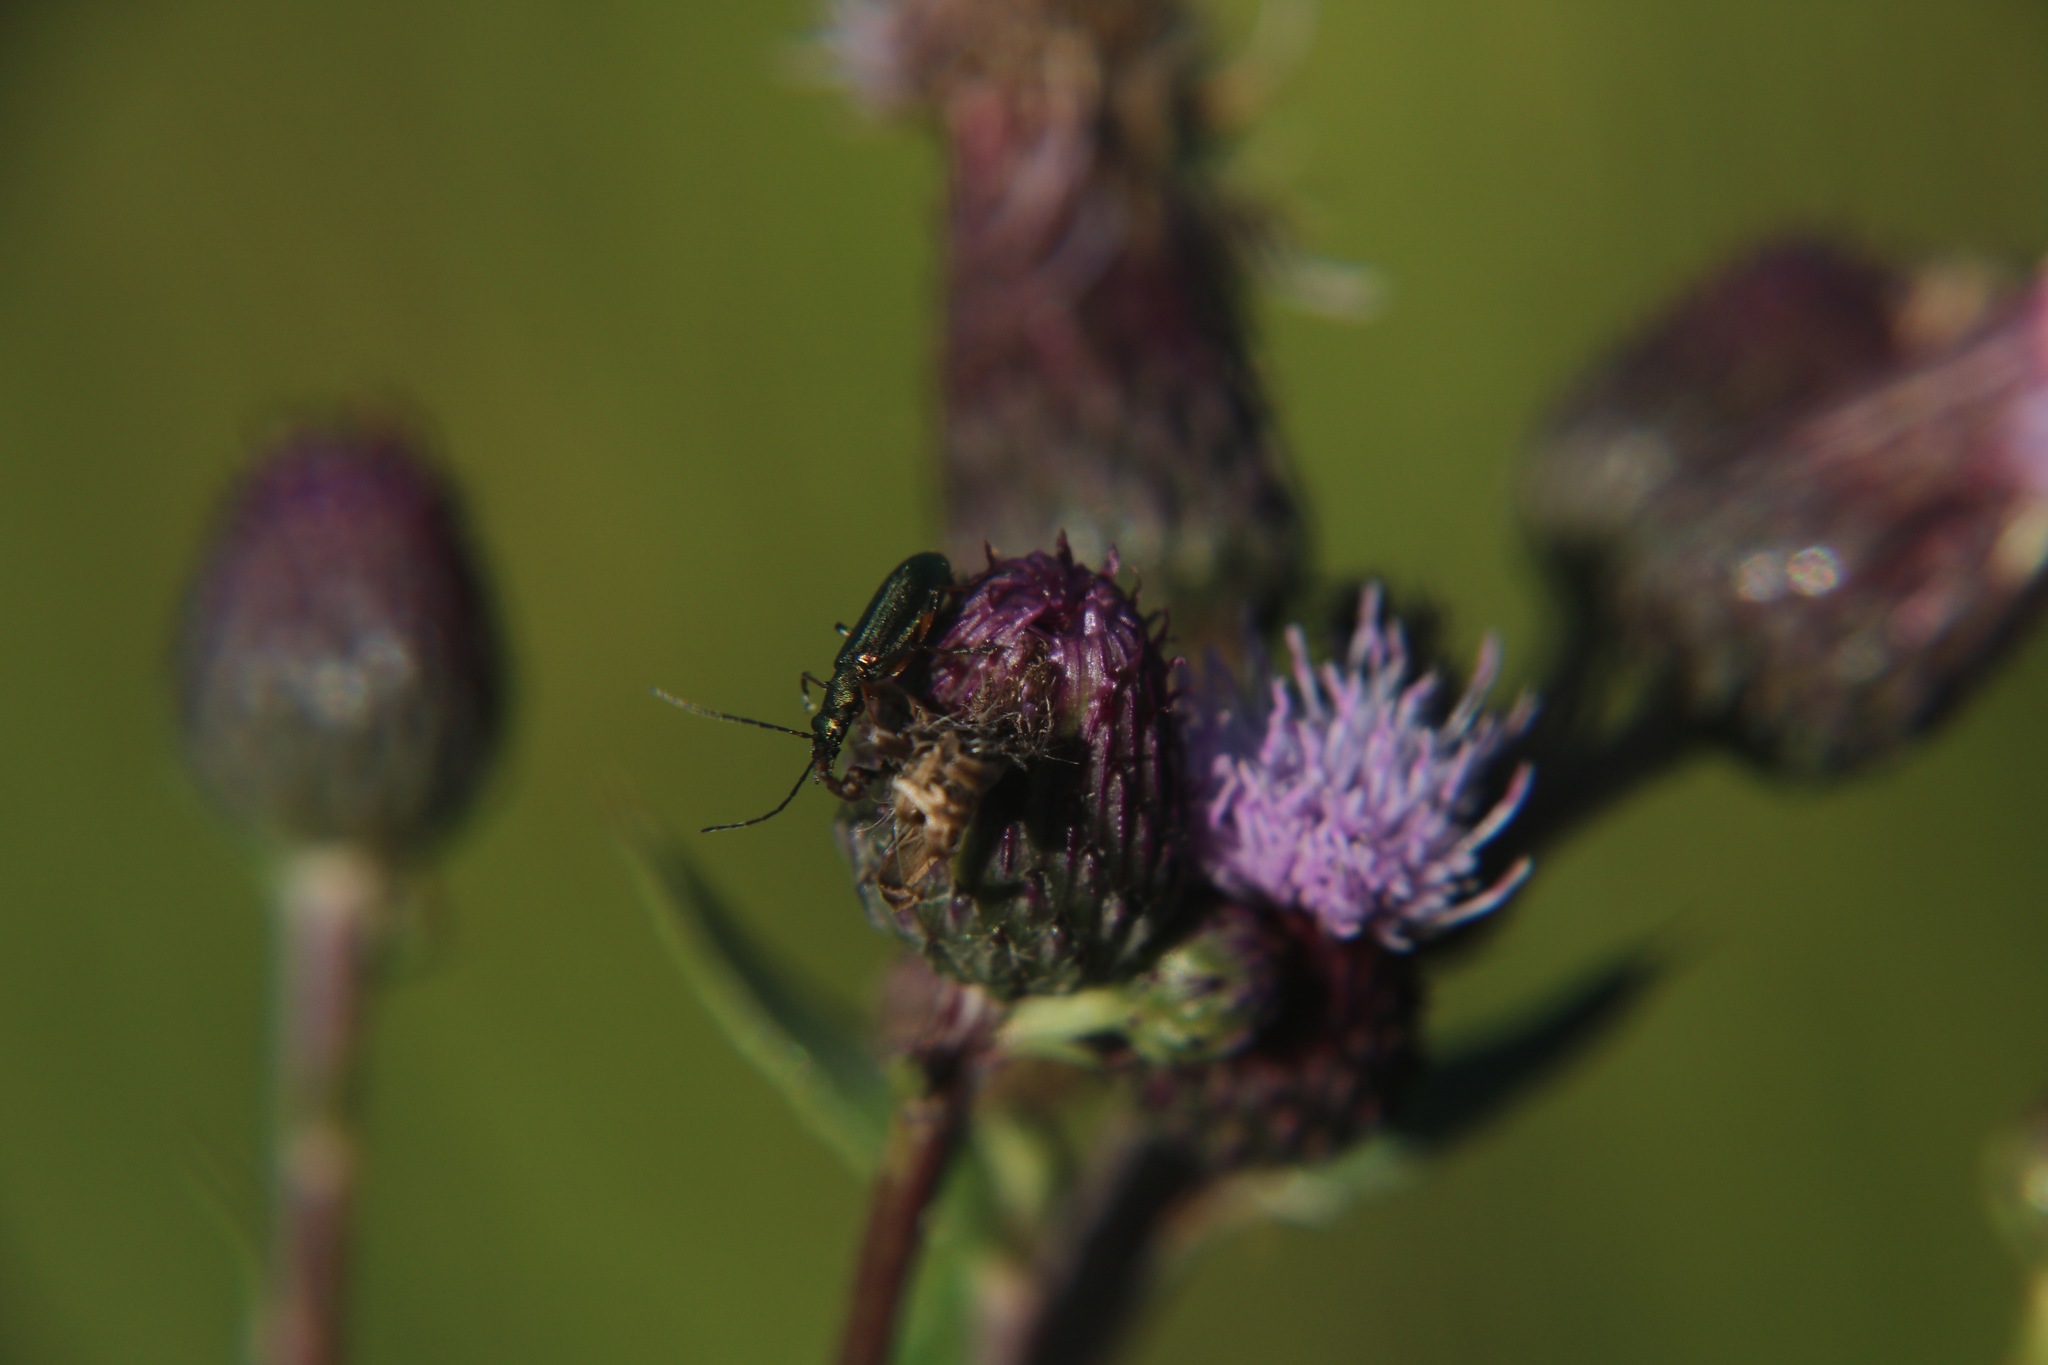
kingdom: Animalia
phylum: Arthropoda
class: Insecta
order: Coleoptera
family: Oedemeridae
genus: Chrysanthia
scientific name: Chrysanthia geniculata
